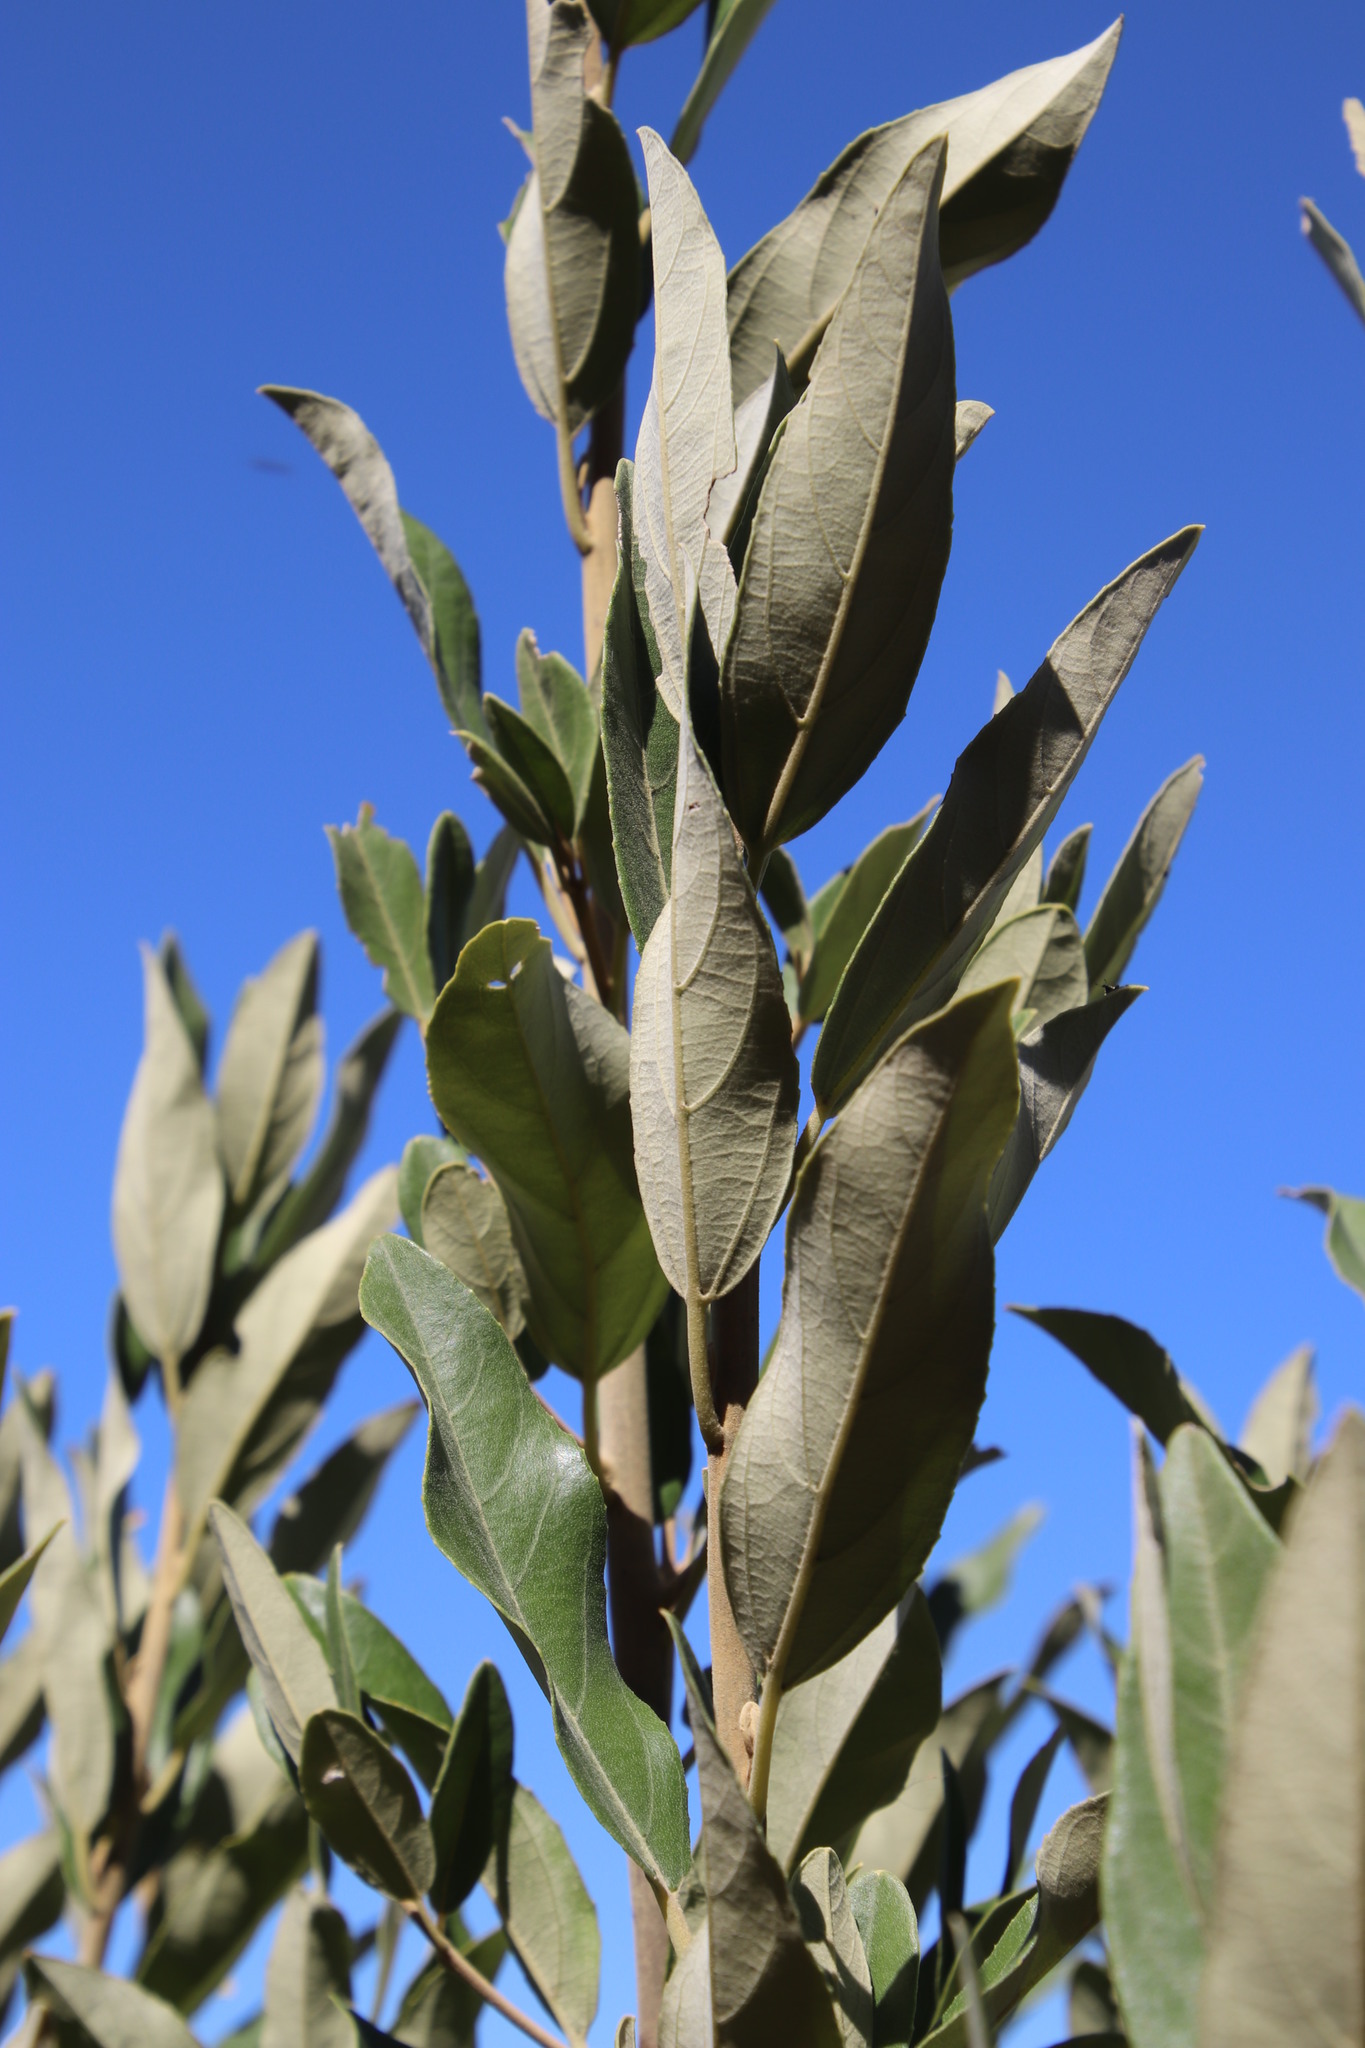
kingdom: Plantae
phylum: Tracheophyta
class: Magnoliopsida
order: Malpighiales
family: Achariaceae
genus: Kiggelaria
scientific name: Kiggelaria africana
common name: Wild peach
